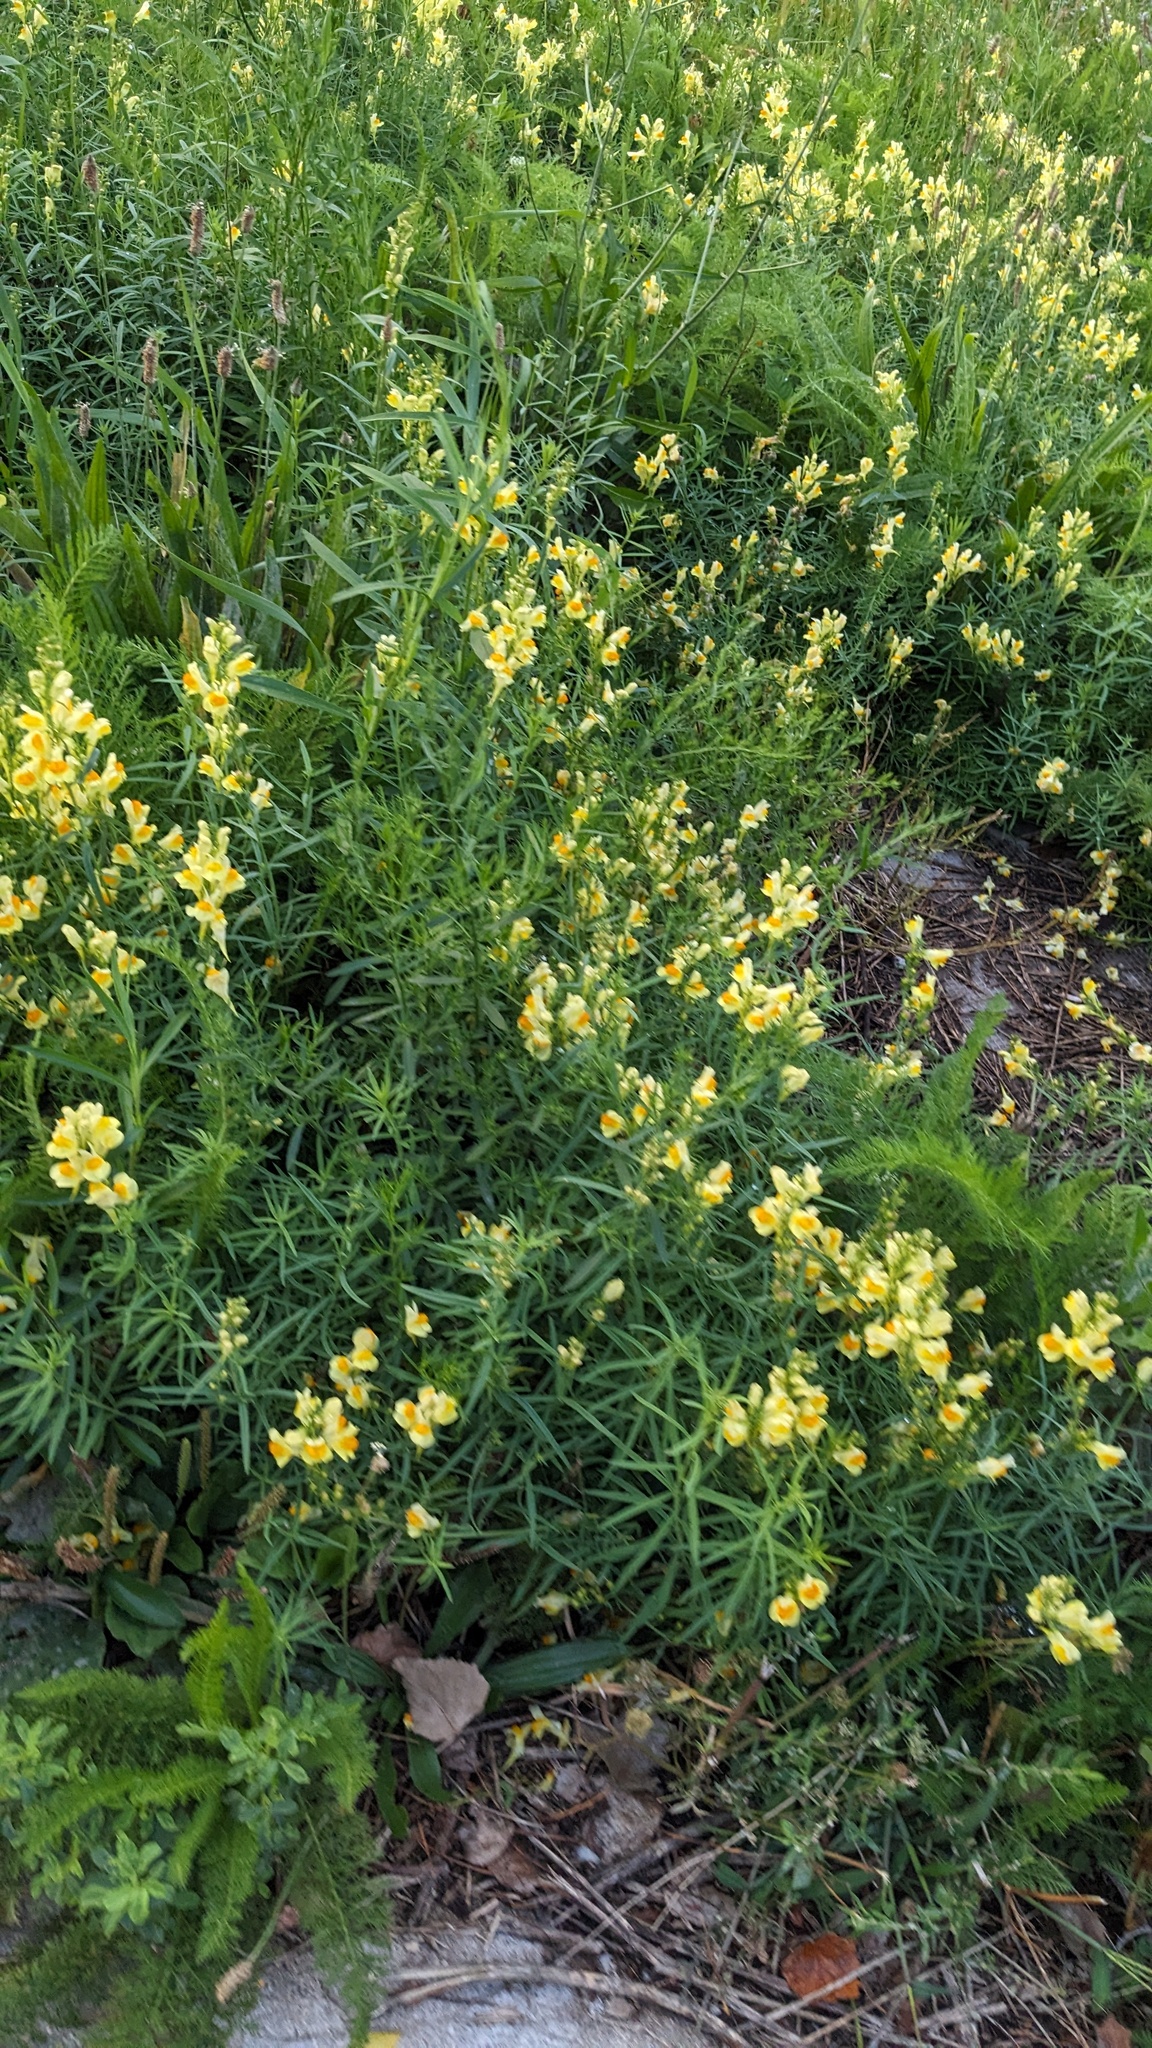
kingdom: Plantae
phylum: Tracheophyta
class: Magnoliopsida
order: Lamiales
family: Plantaginaceae
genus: Linaria
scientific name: Linaria vulgaris
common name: Butter and eggs
